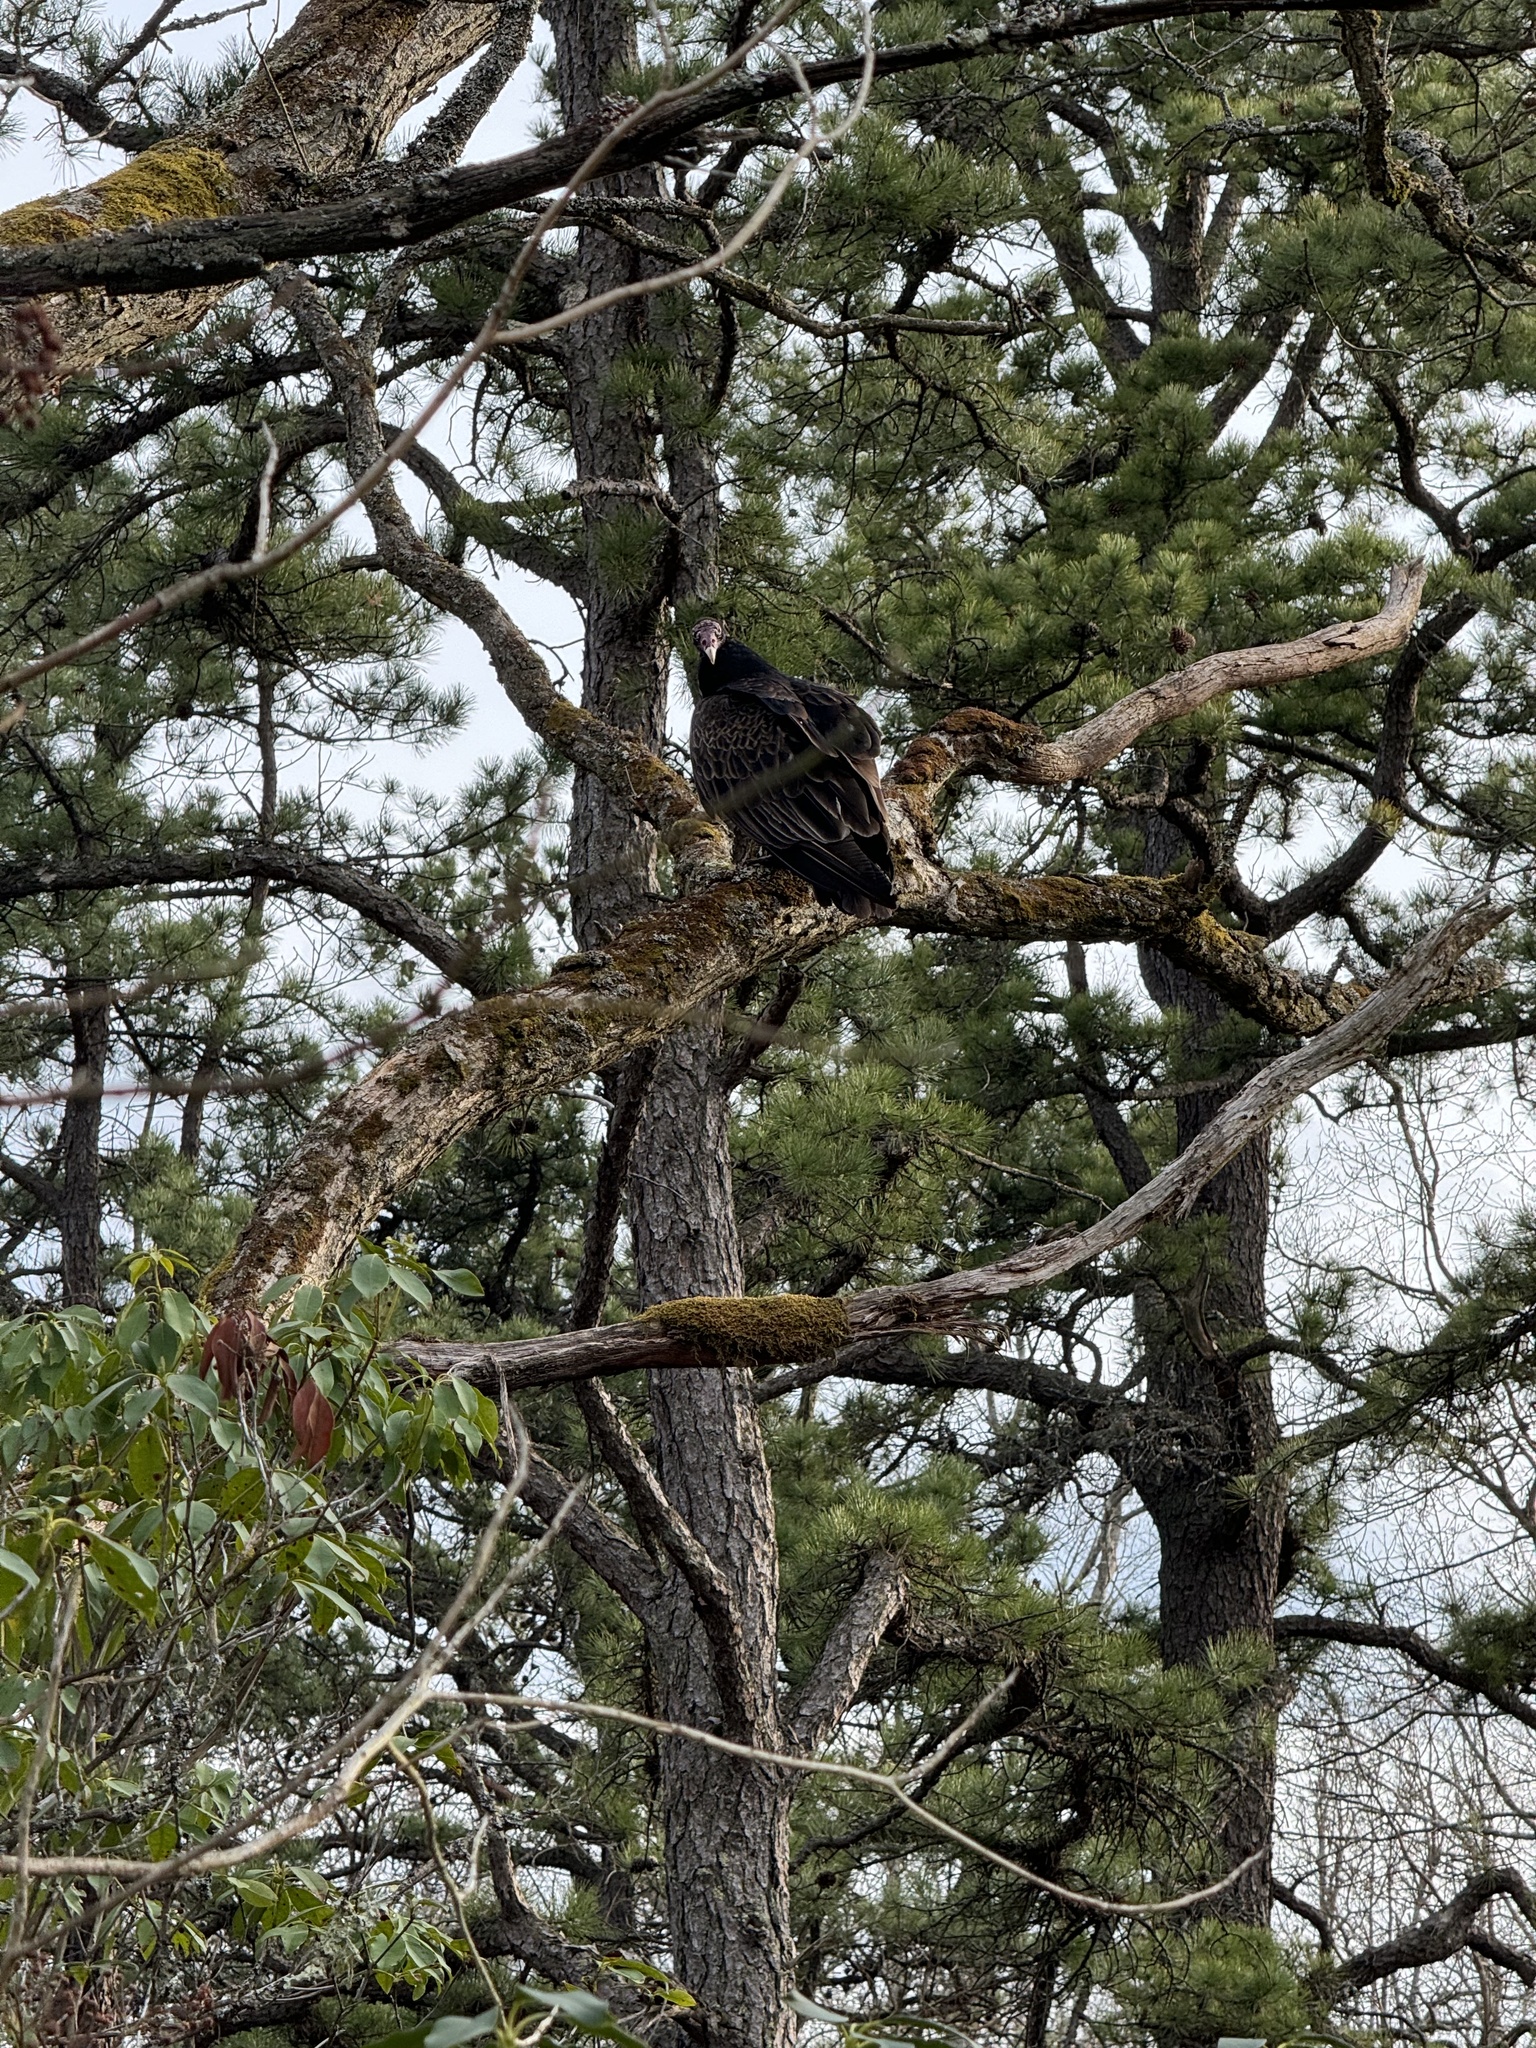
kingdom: Animalia
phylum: Chordata
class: Aves
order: Accipitriformes
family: Cathartidae
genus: Cathartes
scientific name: Cathartes aura
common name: Turkey vulture
